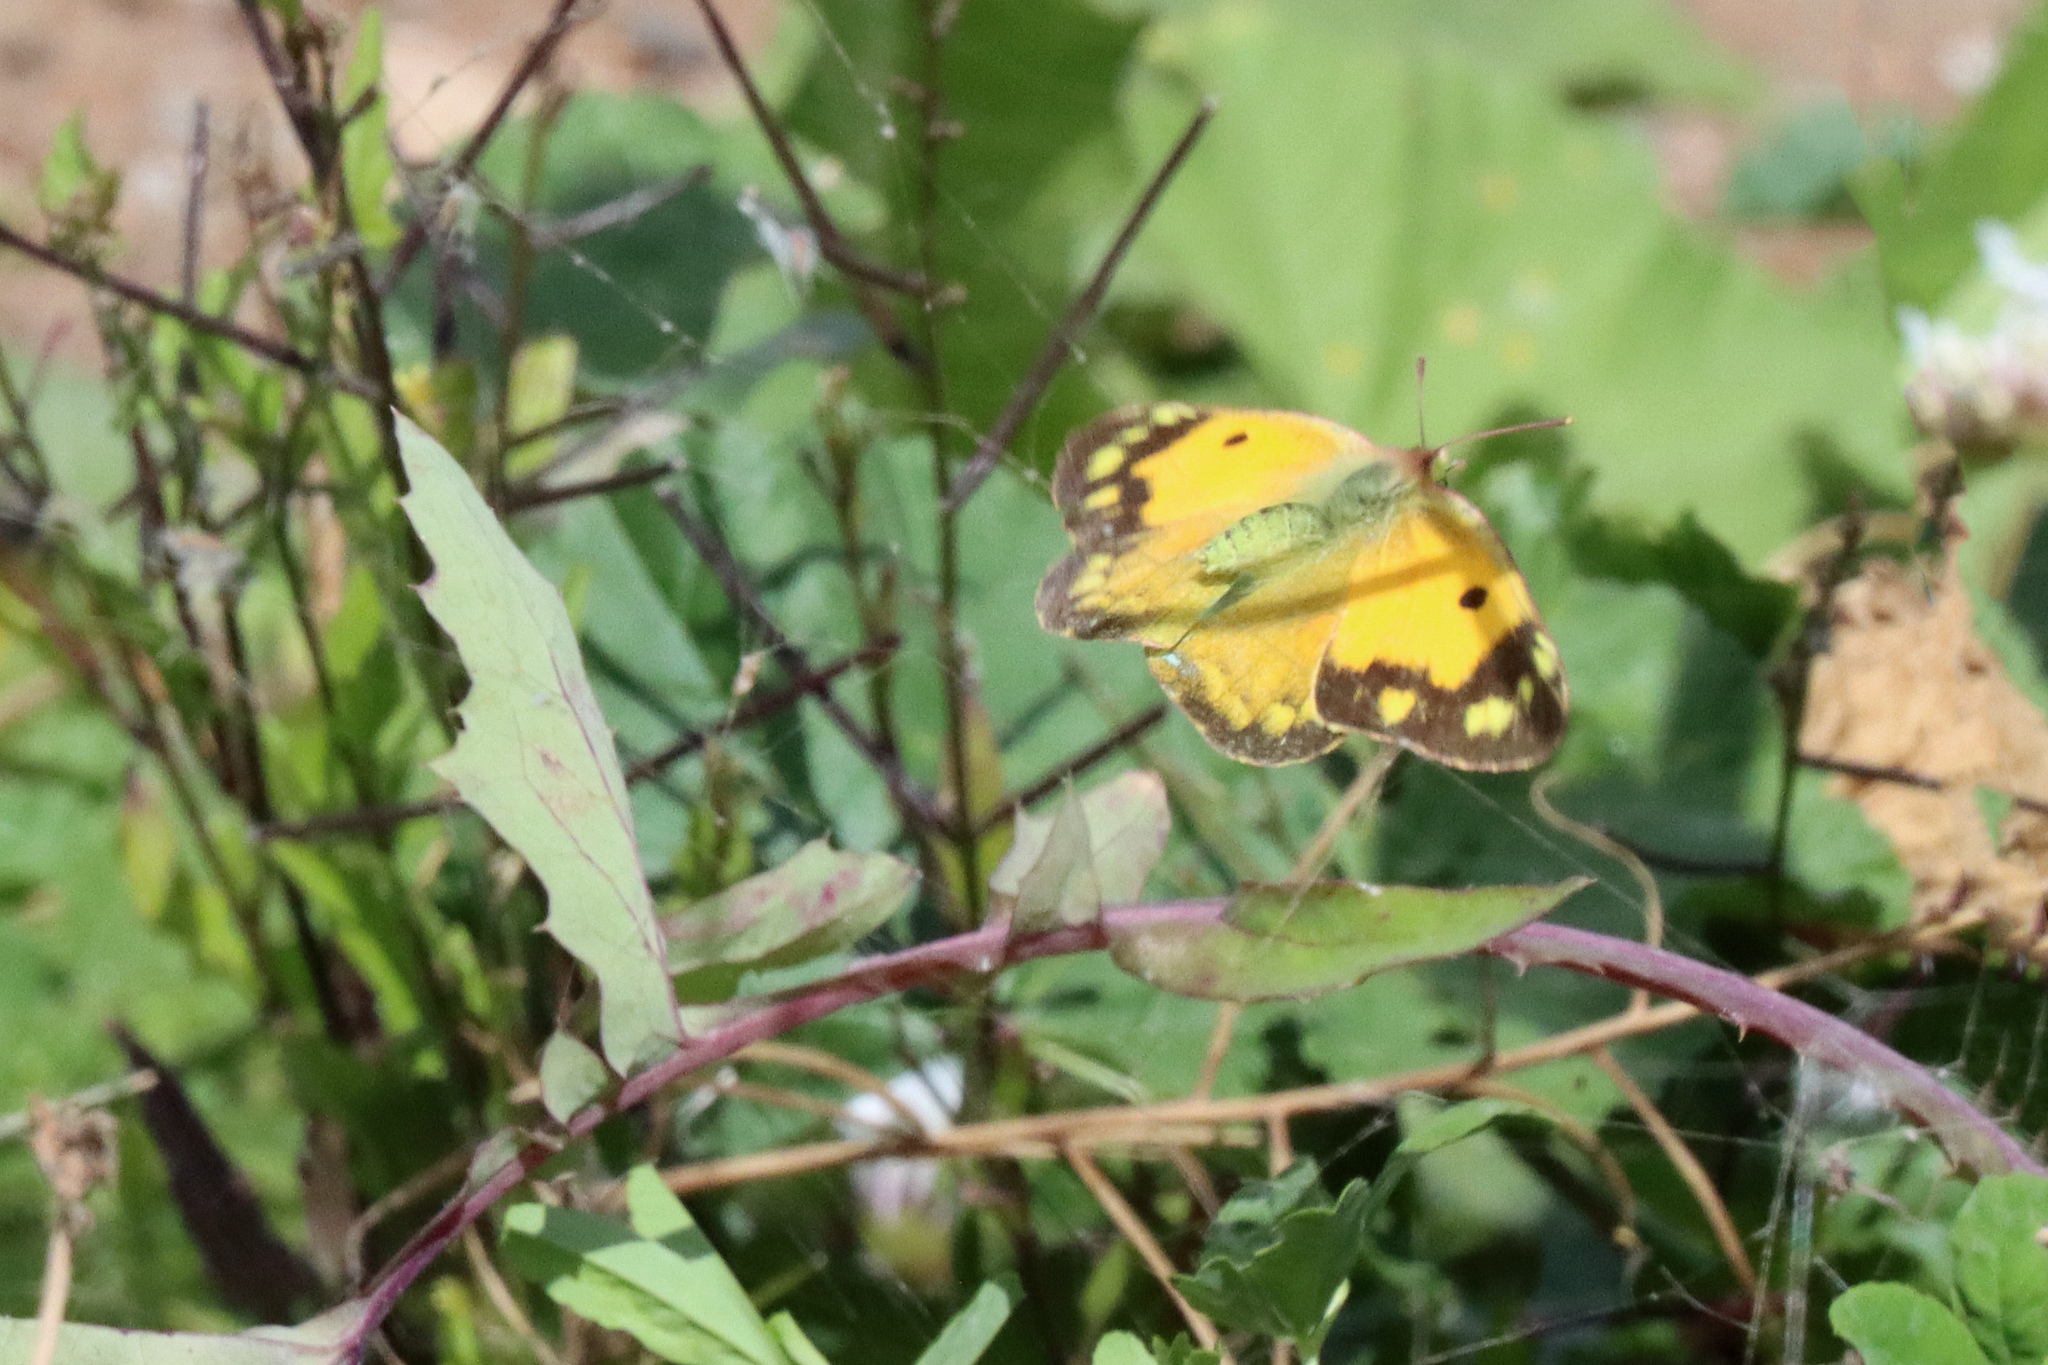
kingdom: Animalia
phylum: Arthropoda
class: Insecta
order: Lepidoptera
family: Pieridae
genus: Colias
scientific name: Colias croceus
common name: Clouded yellow
